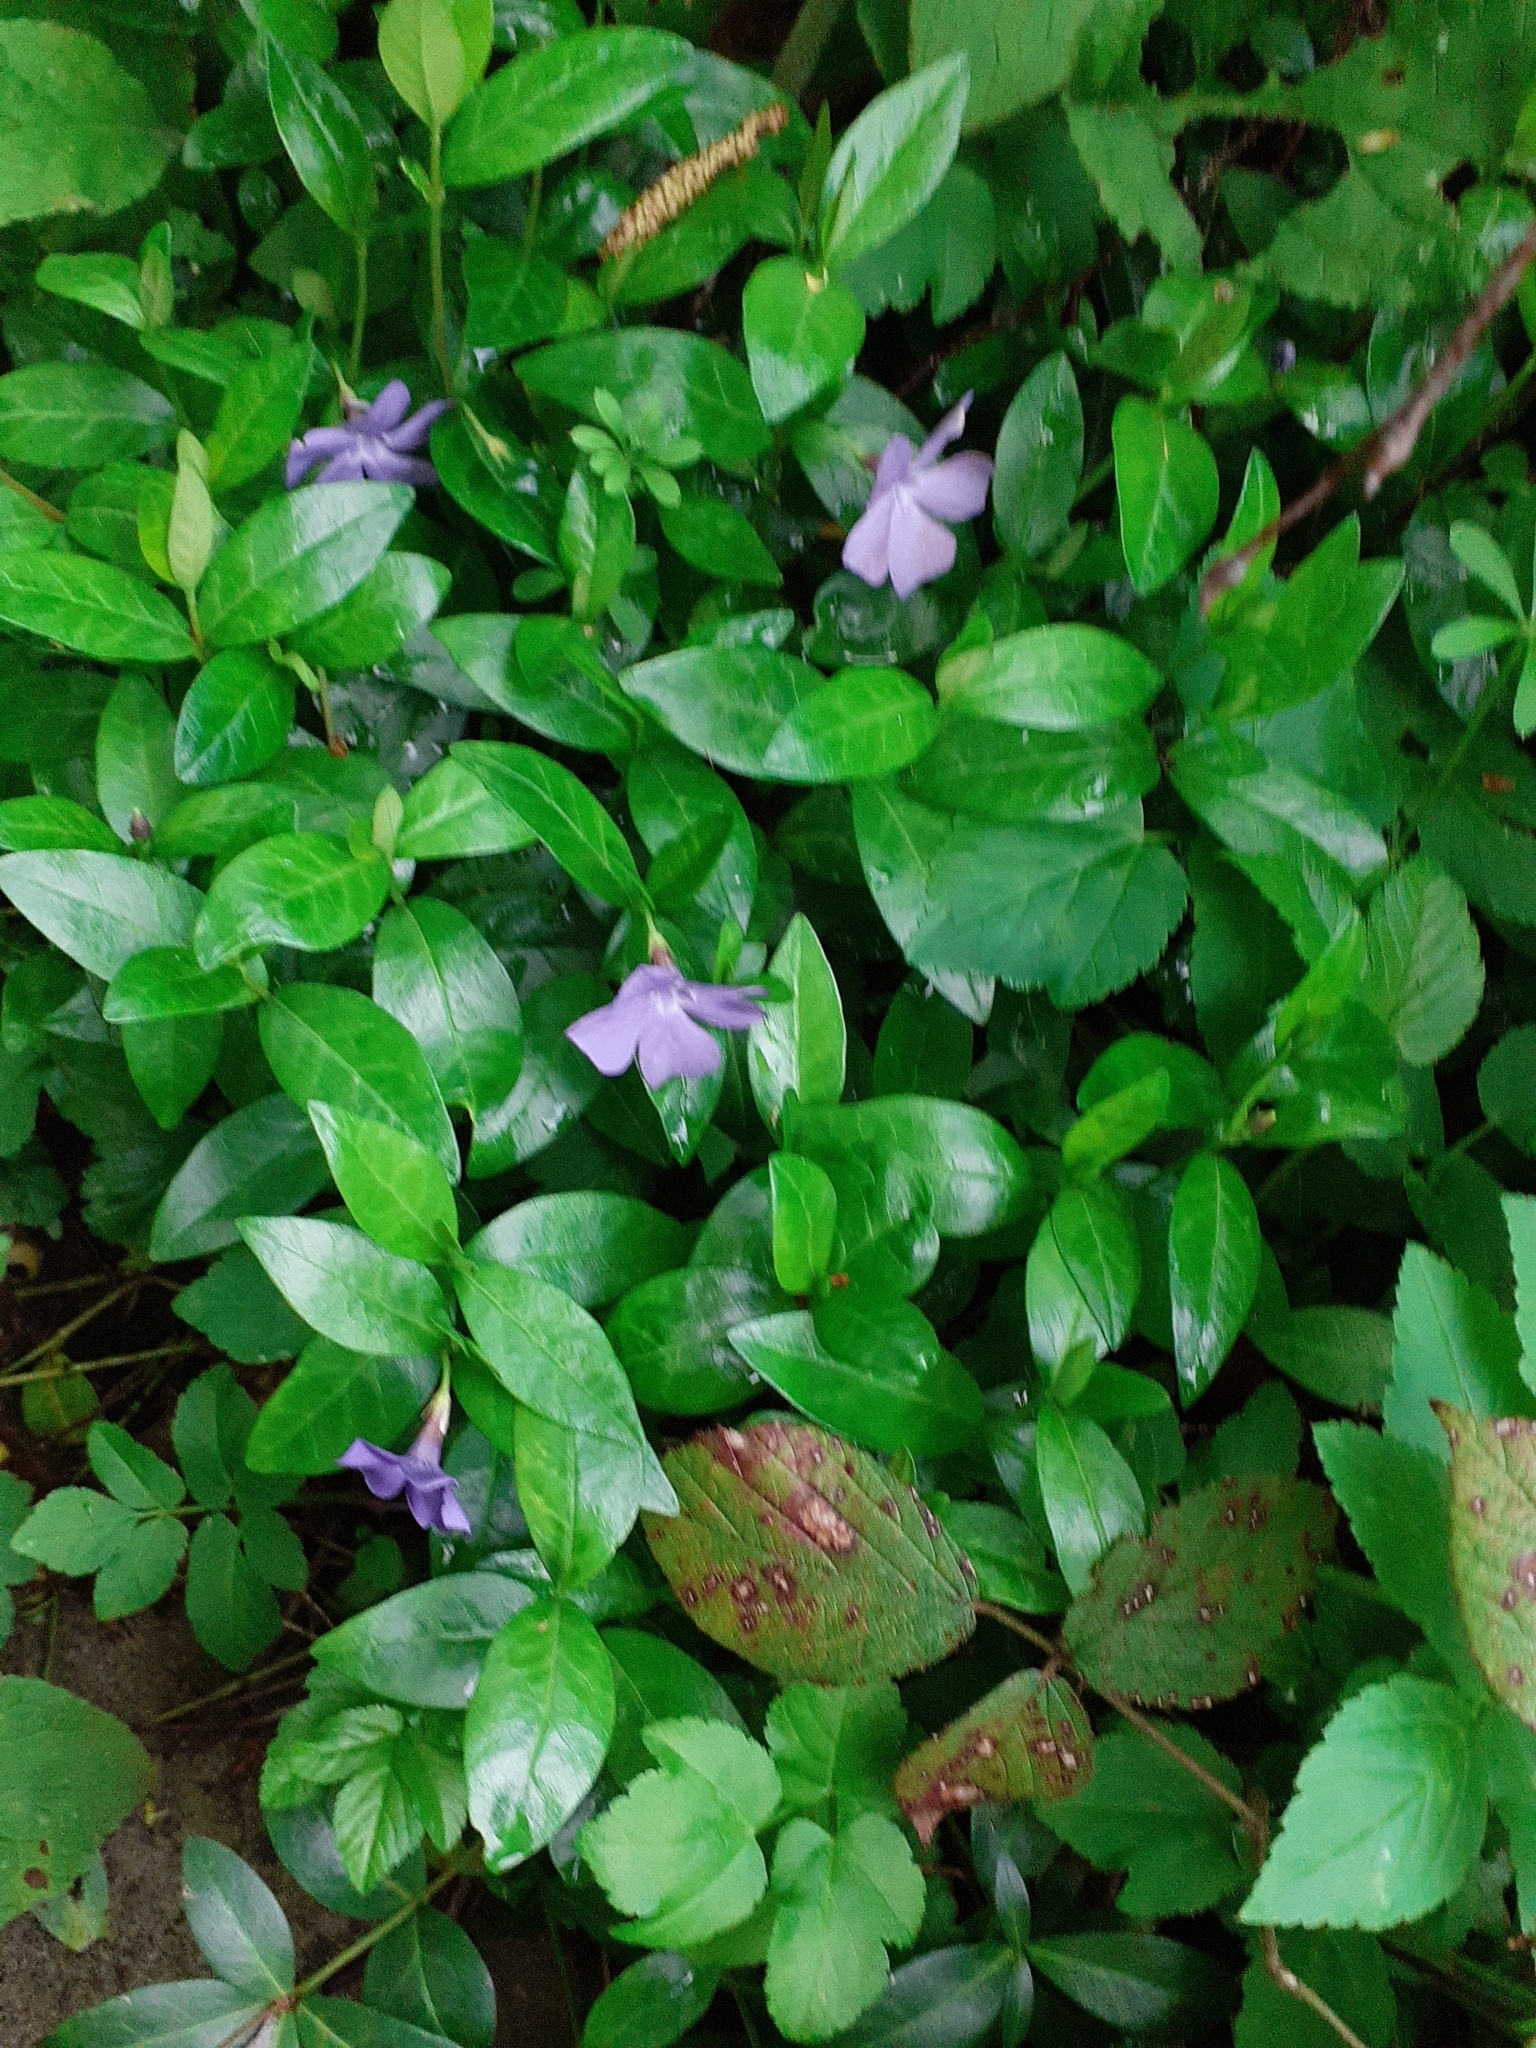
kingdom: Plantae
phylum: Tracheophyta
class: Magnoliopsida
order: Gentianales
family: Apocynaceae
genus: Vinca
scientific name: Vinca minor
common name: Lesser periwinkle
